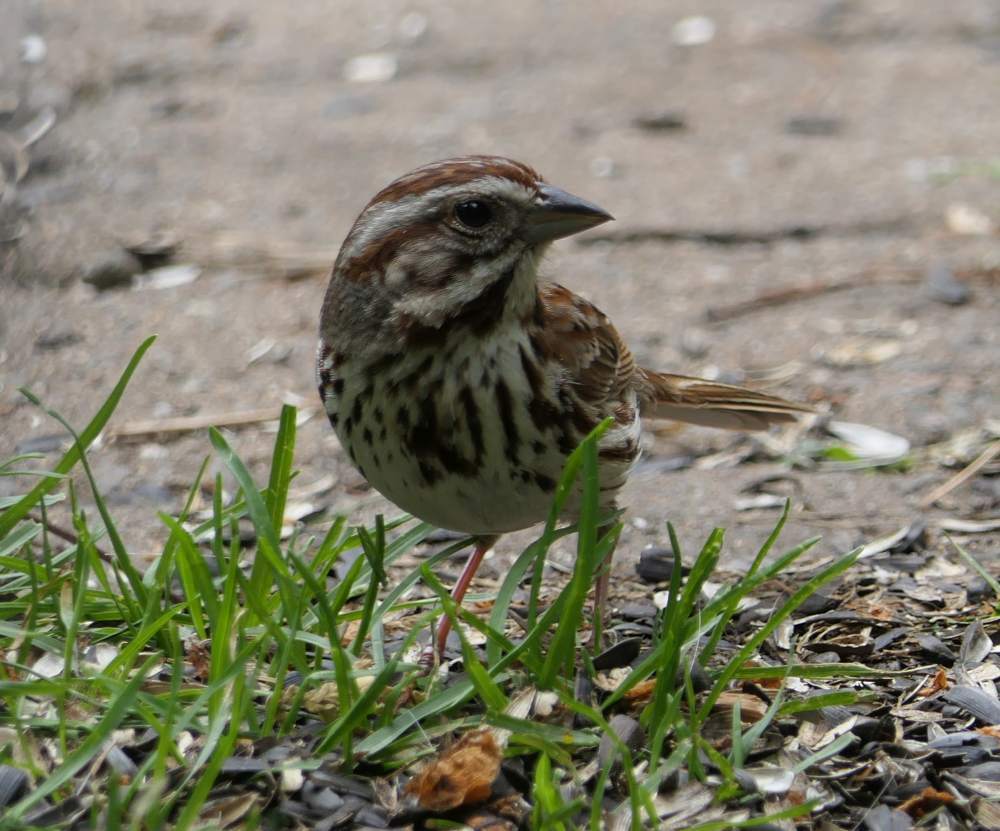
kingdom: Animalia
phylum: Chordata
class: Aves
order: Passeriformes
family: Passerellidae
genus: Melospiza
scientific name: Melospiza melodia
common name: Song sparrow
